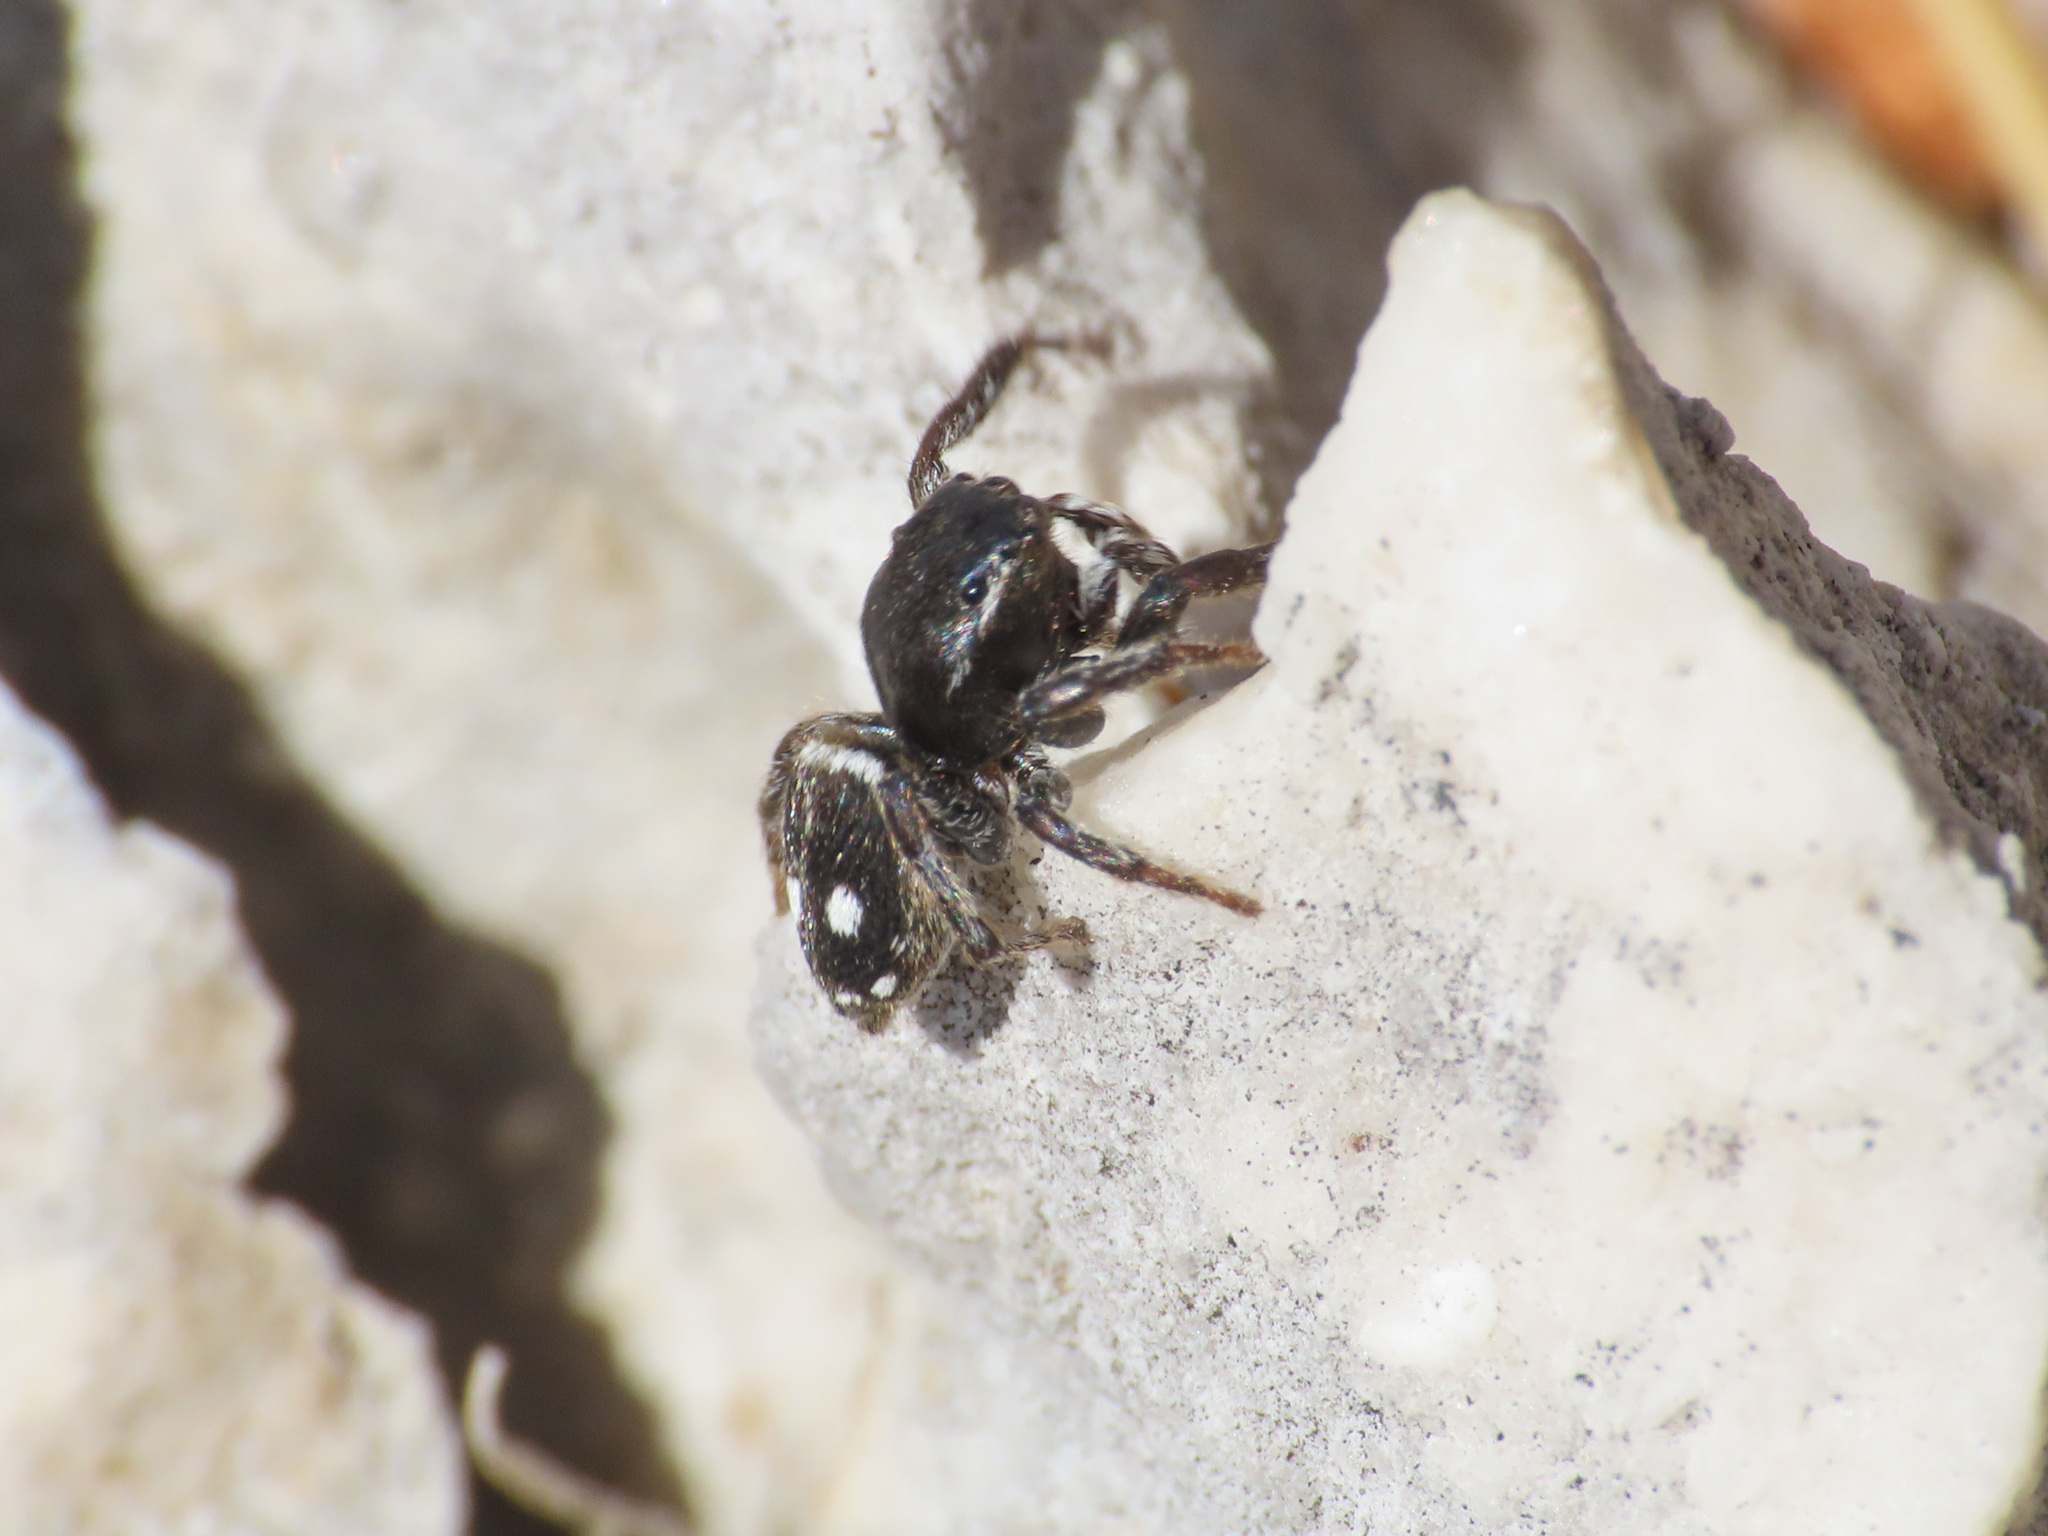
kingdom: Animalia
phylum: Arthropoda
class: Arachnida
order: Araneae
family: Salticidae
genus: Attulus
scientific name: Attulus atricapillus
